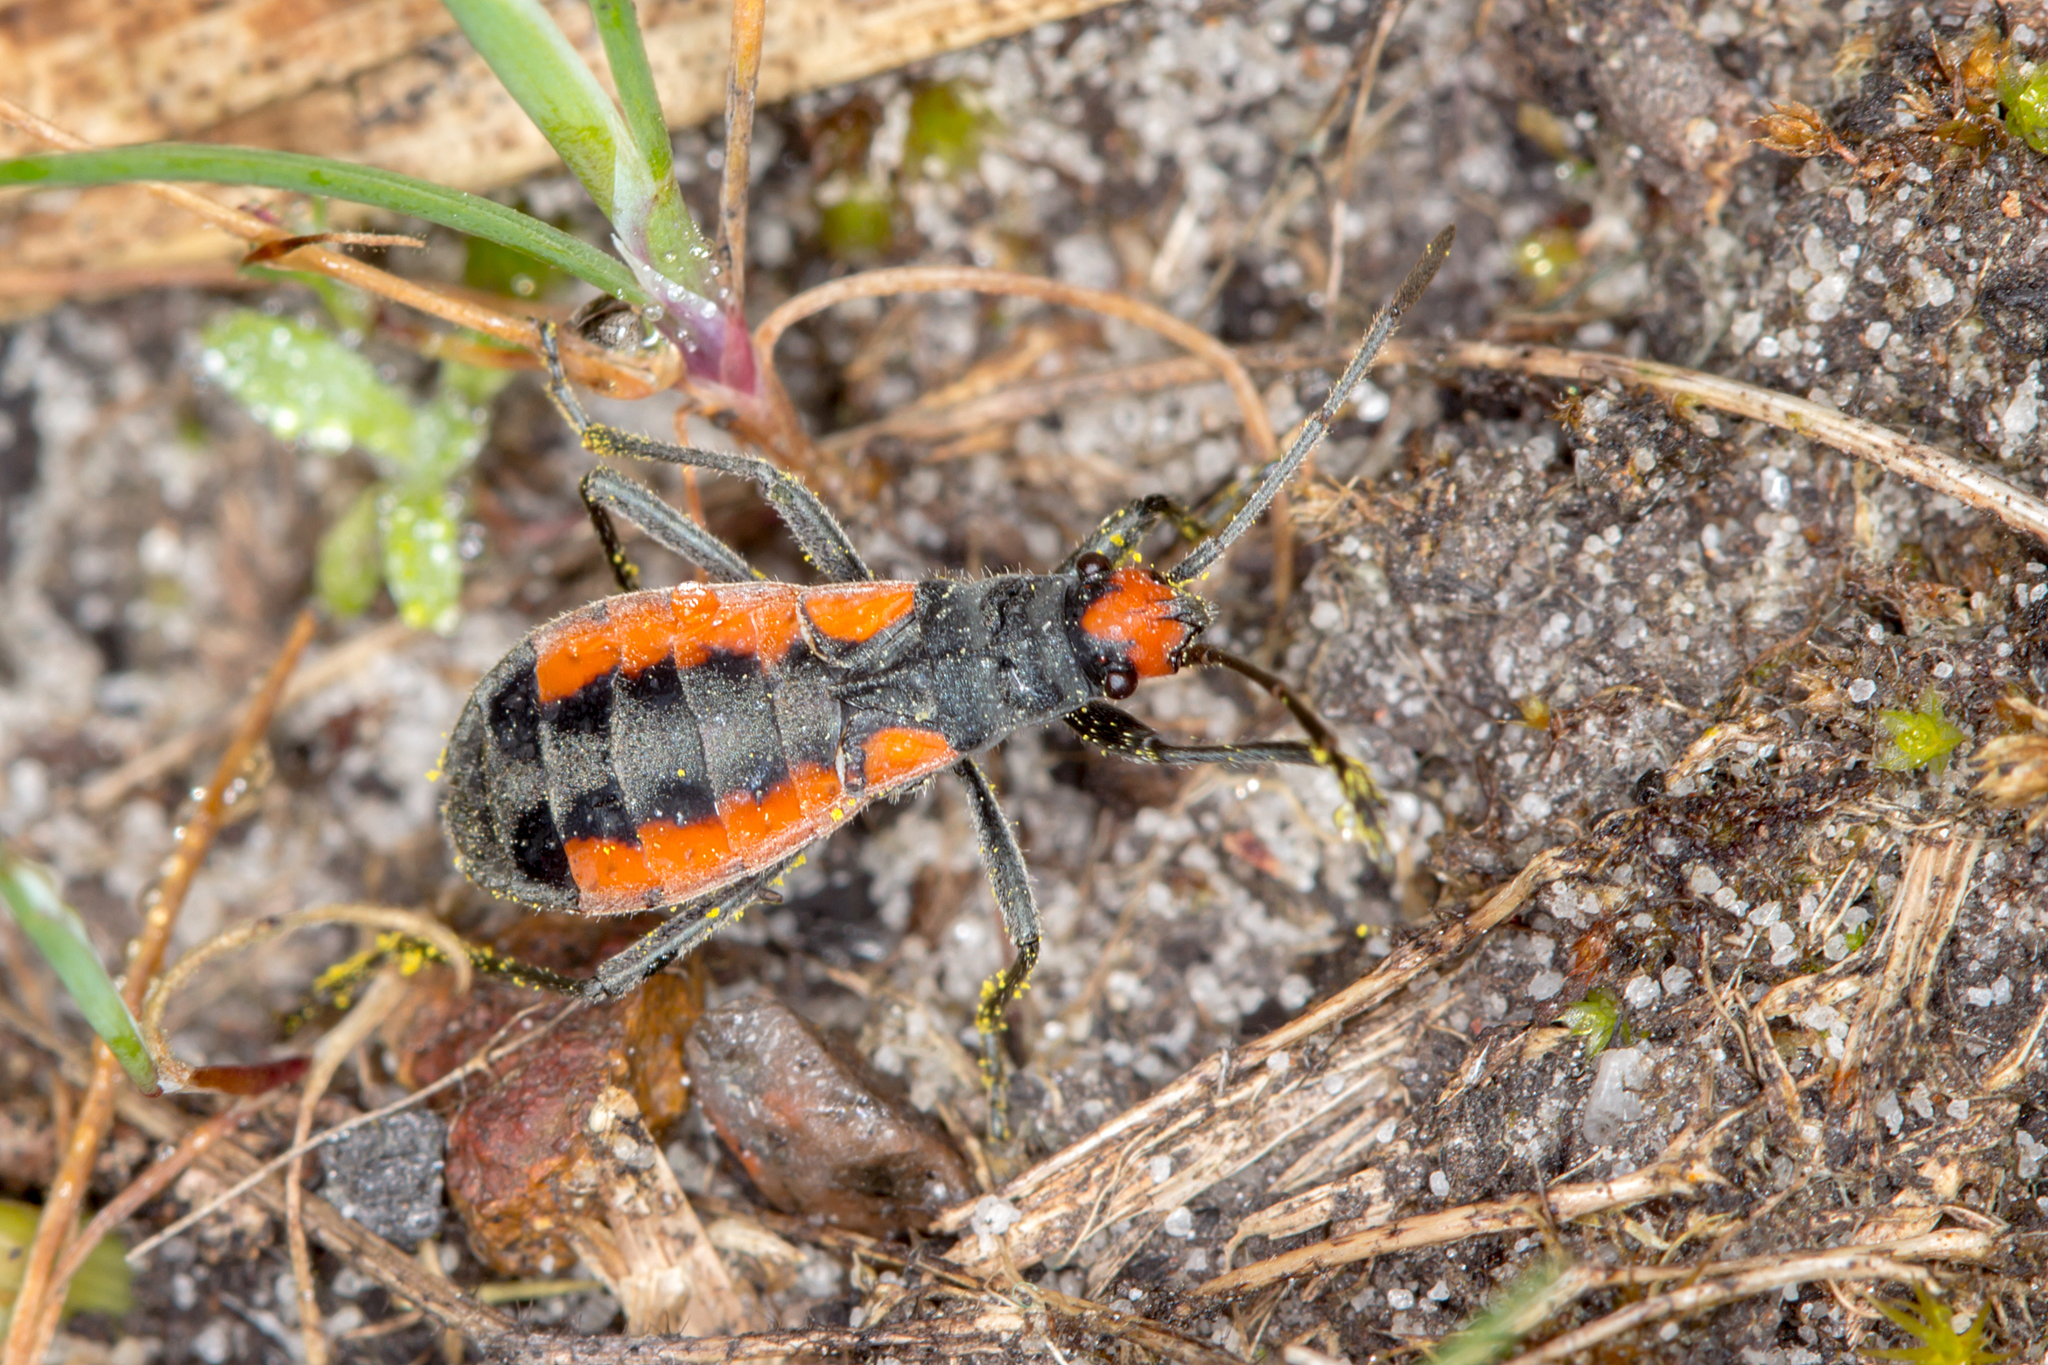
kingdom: Animalia
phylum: Arthropoda
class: Insecta
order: Hemiptera
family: Lygaeidae
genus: Melanerythrus
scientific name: Melanerythrus mutilatus
